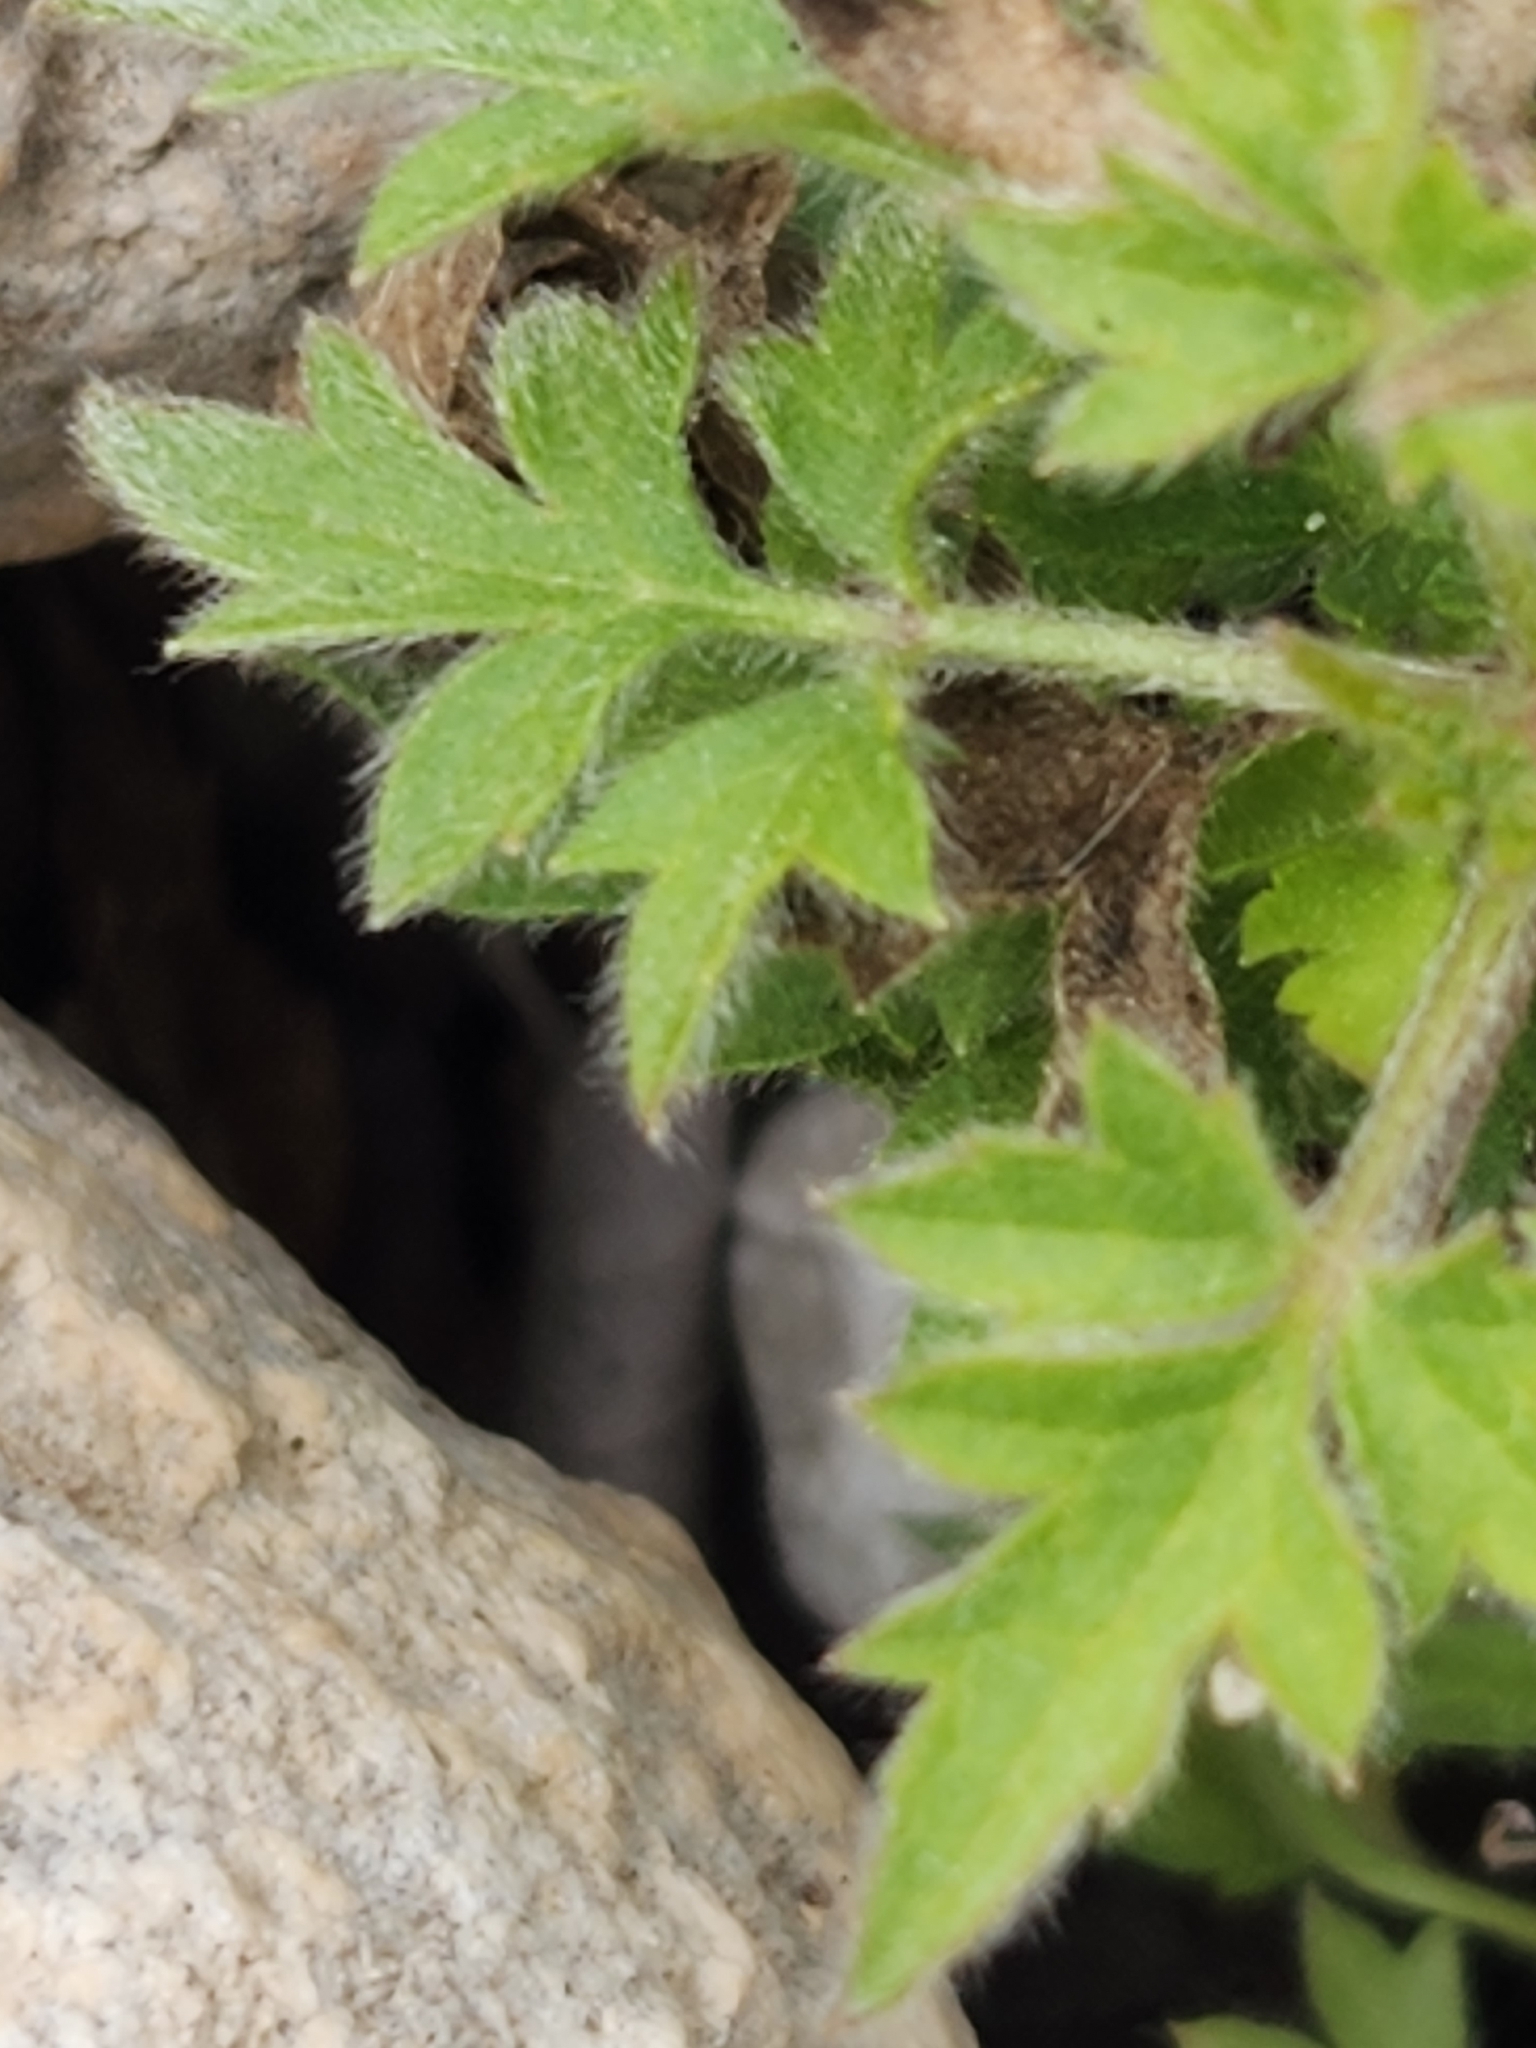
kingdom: Plantae
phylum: Tracheophyta
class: Magnoliopsida
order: Ranunculales
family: Ranunculaceae
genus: Clematis
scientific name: Clematis drummondii
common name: Texas virgin's bower
